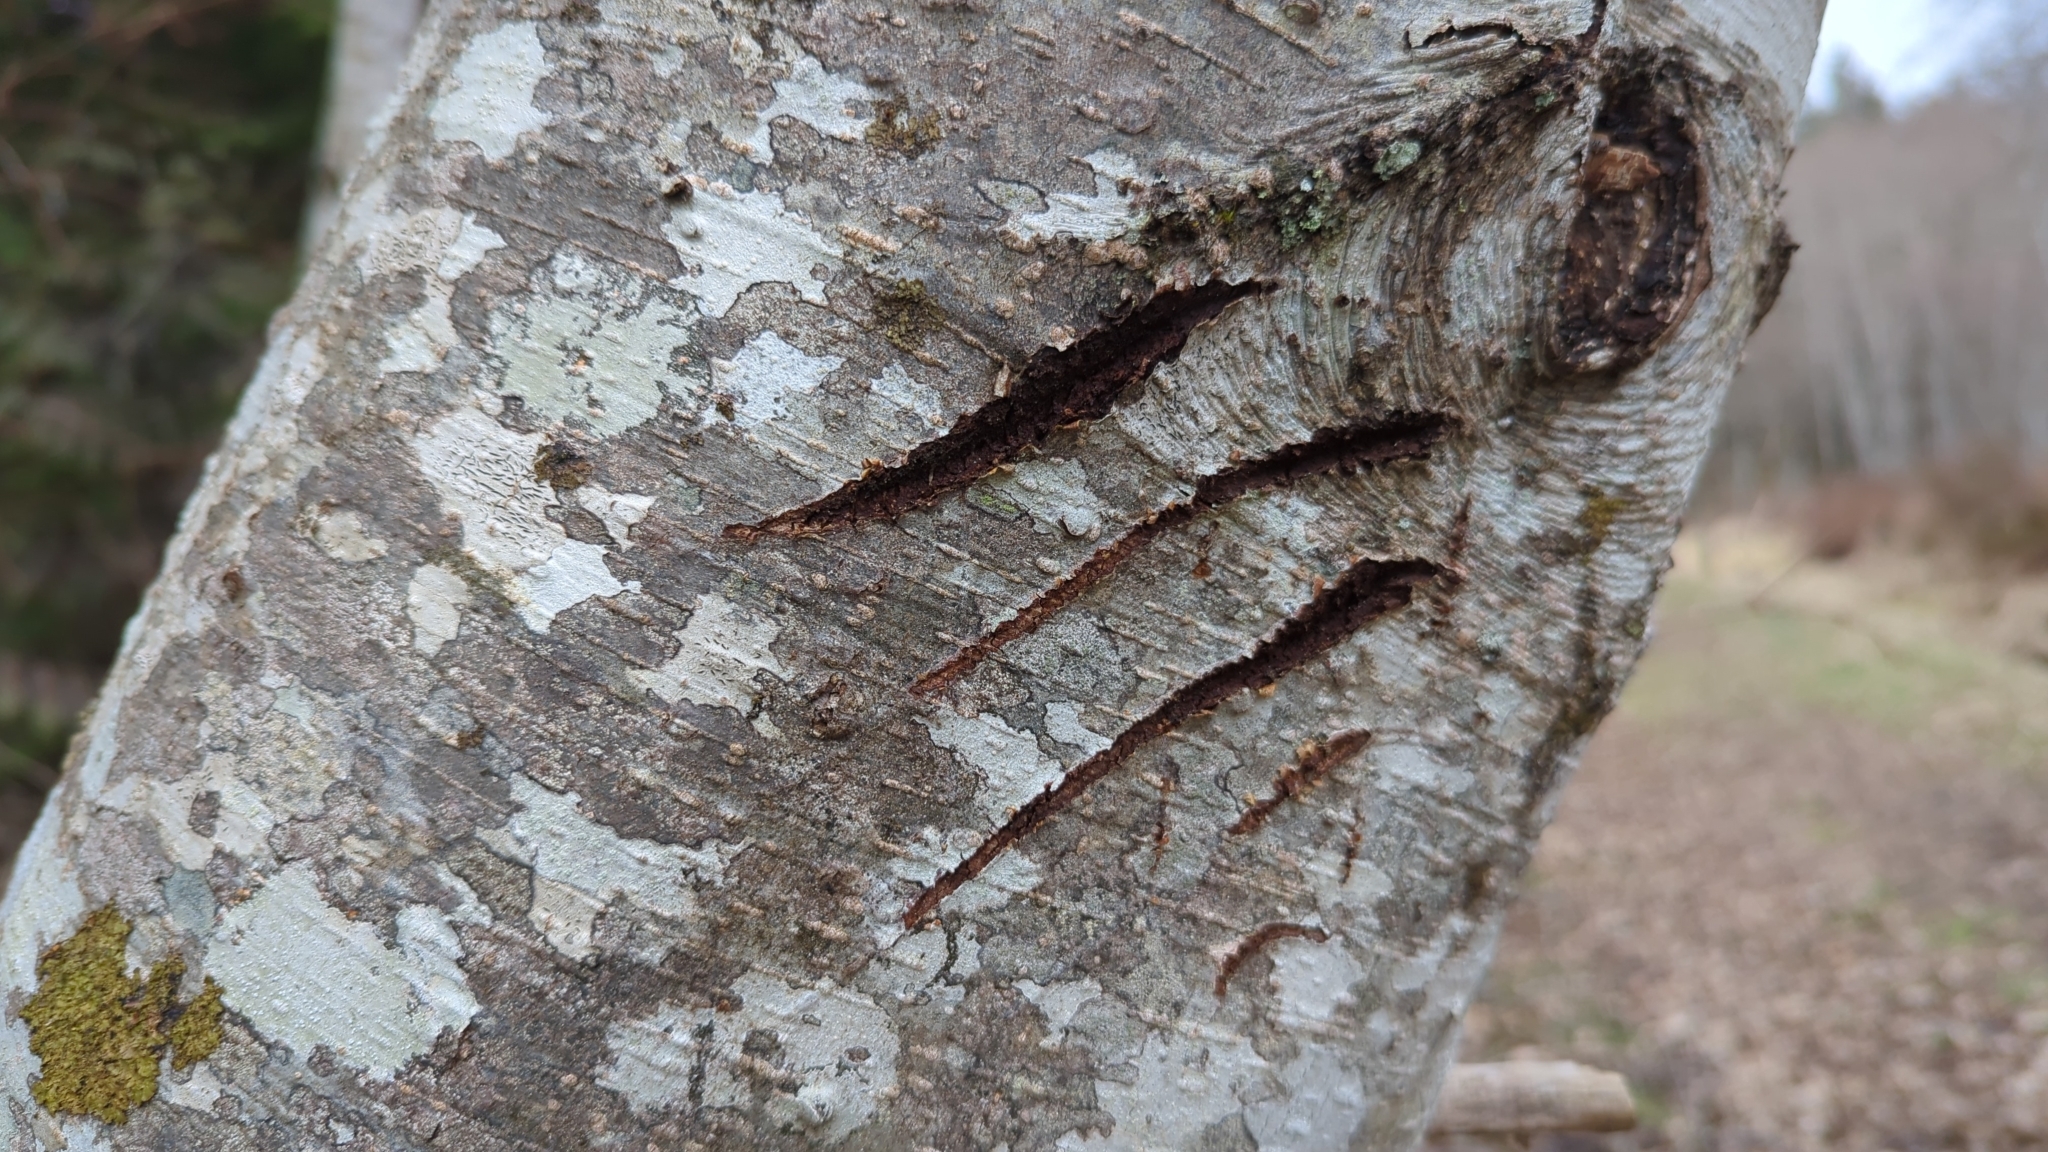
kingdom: Animalia
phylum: Chordata
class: Mammalia
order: Carnivora
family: Ursidae
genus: Ursus
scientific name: Ursus americanus
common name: American black bear
